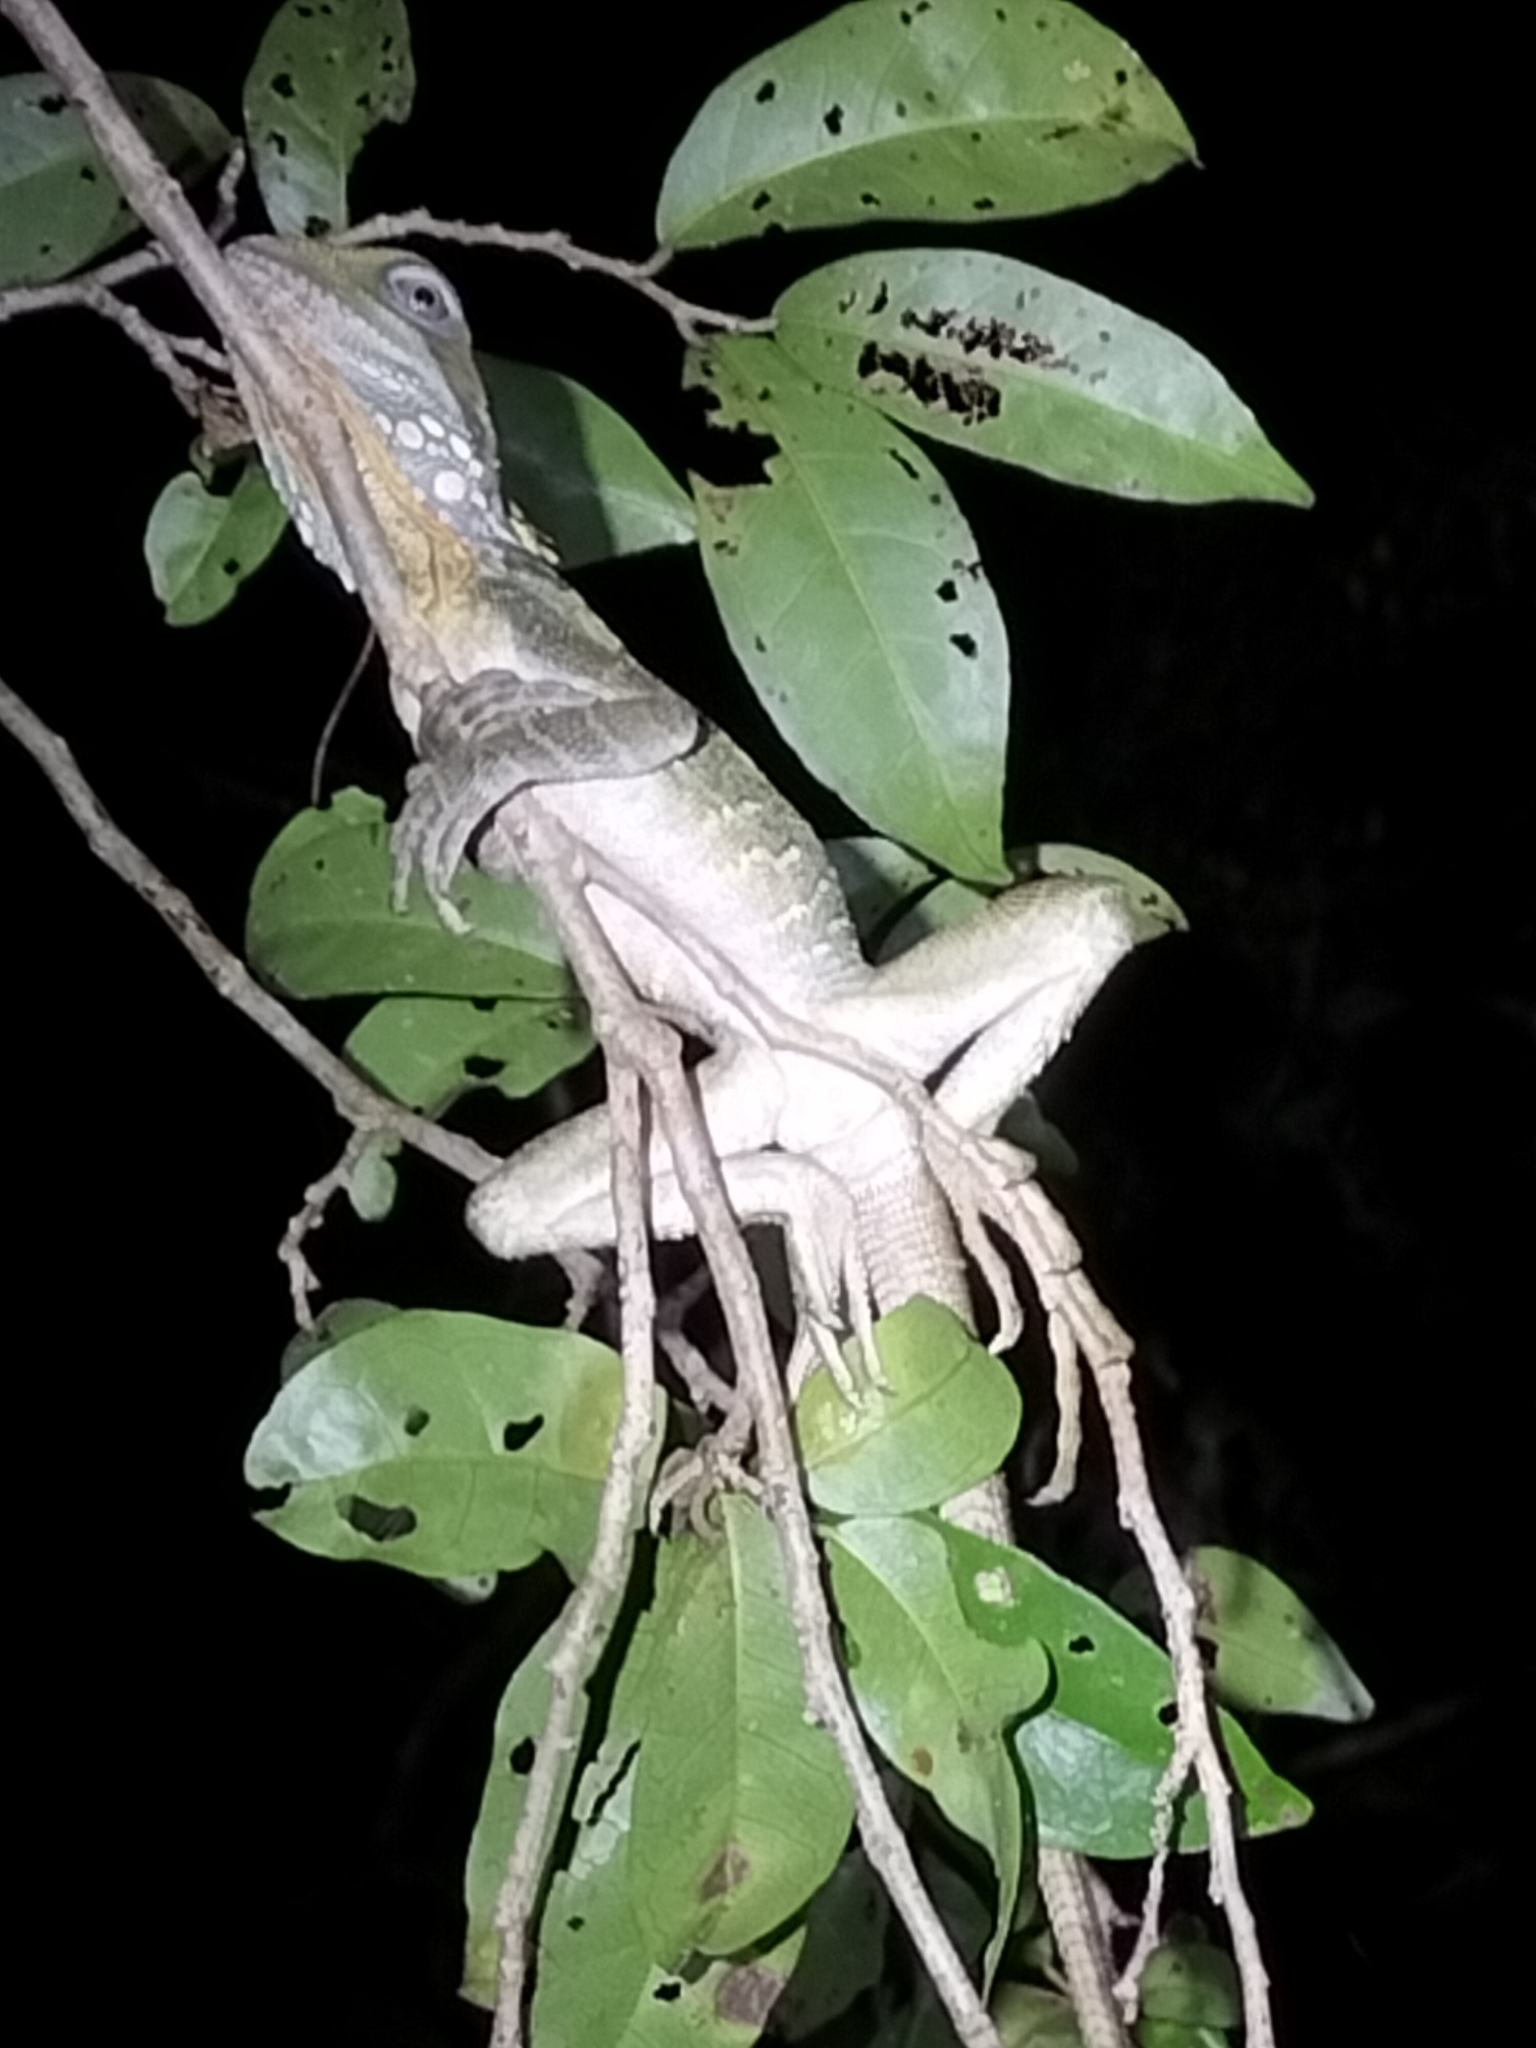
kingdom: Animalia
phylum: Chordata
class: Squamata
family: Agamidae
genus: Lophosaurus
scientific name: Lophosaurus boydii
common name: Boyd's forest dragon
